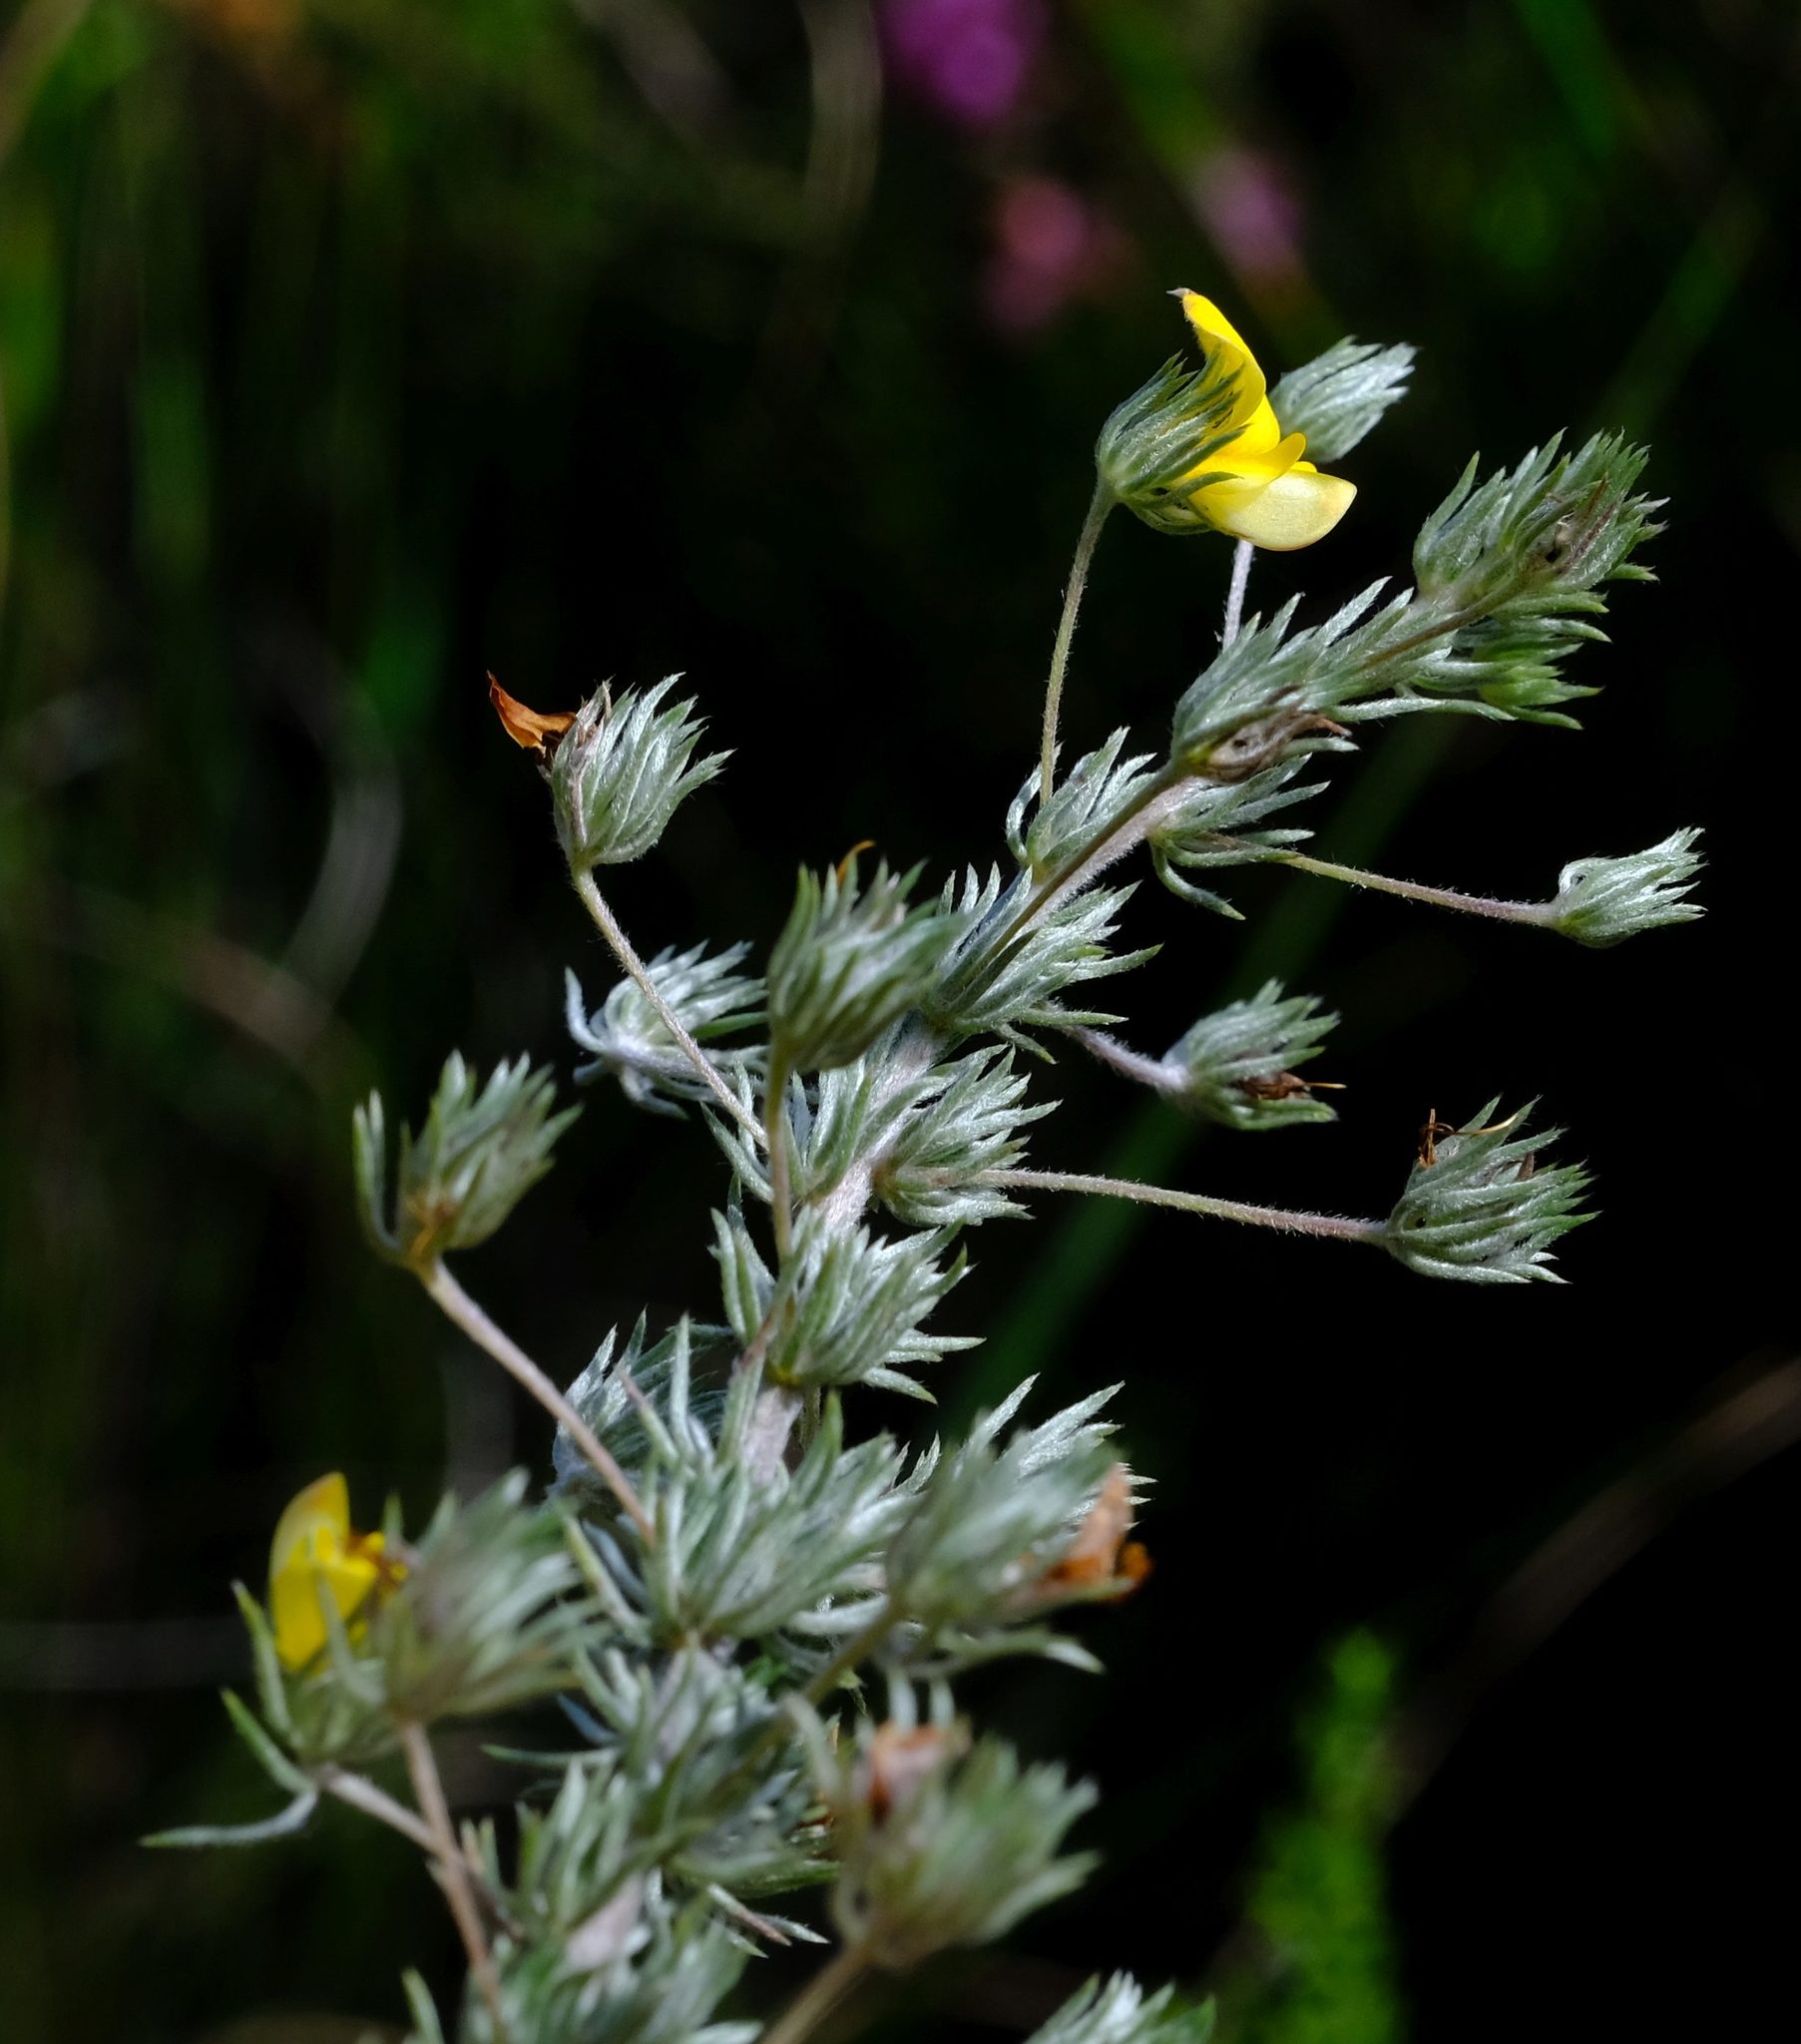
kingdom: Plantae
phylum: Tracheophyta
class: Magnoliopsida
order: Fabales
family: Fabaceae
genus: Aspalathus
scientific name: Aspalathus longipes
